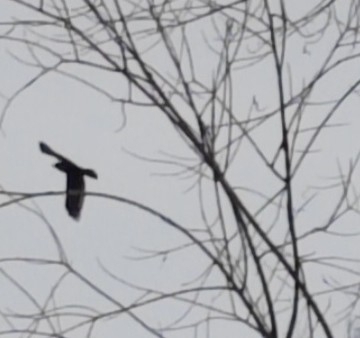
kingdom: Animalia
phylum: Chordata
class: Aves
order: Passeriformes
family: Corvidae
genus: Corvus
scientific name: Corvus corax
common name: Common raven
